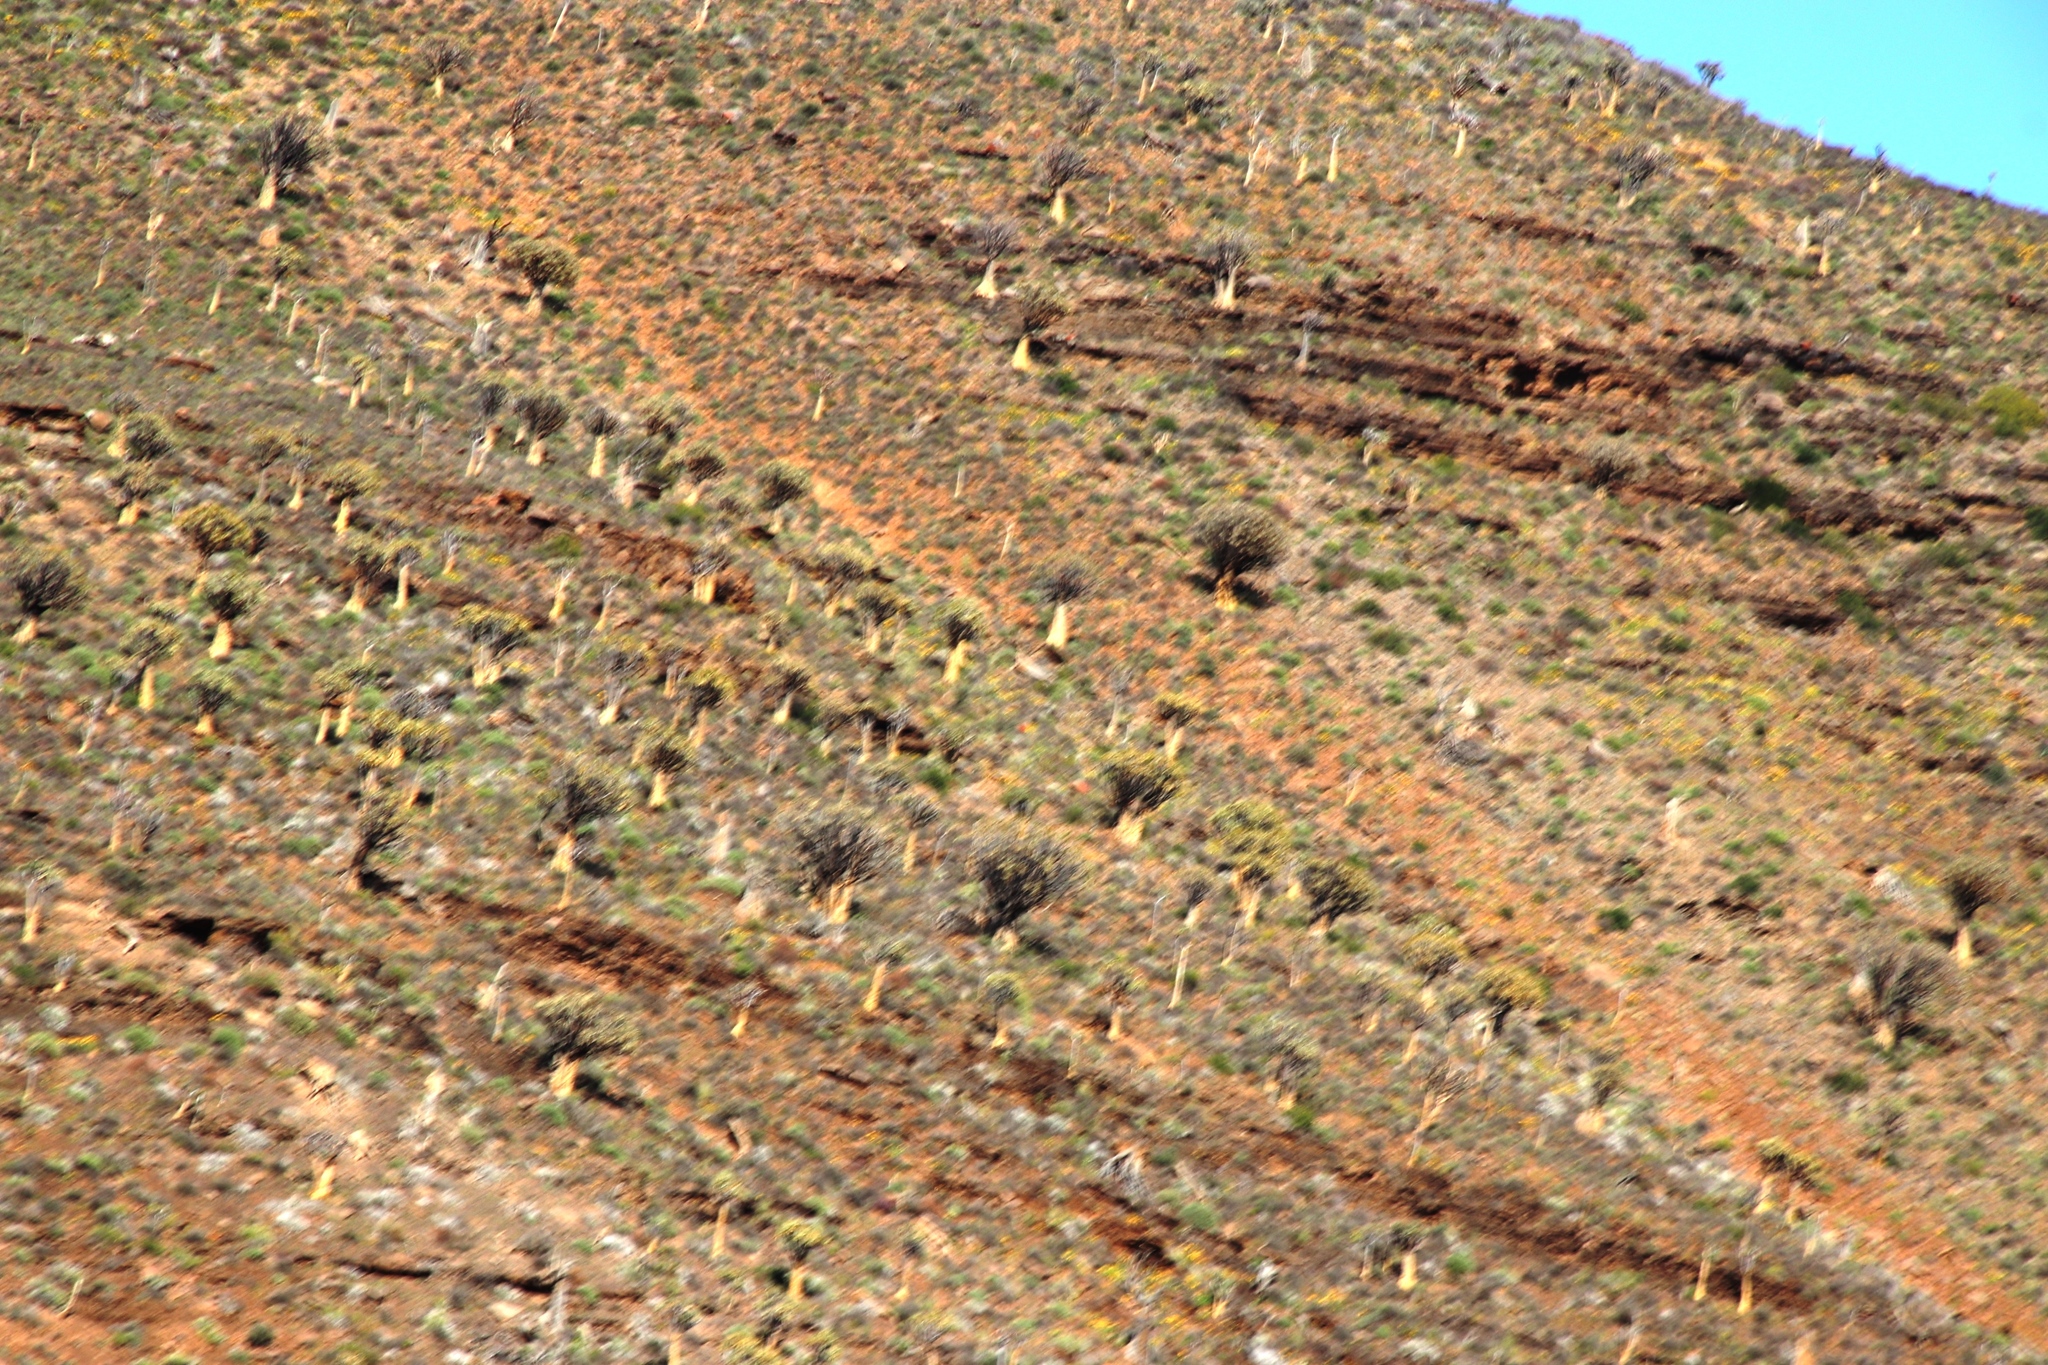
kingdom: Plantae
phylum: Tracheophyta
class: Liliopsida
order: Asparagales
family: Asphodelaceae
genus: Aloidendron
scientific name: Aloidendron dichotomum
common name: Quiver tree
